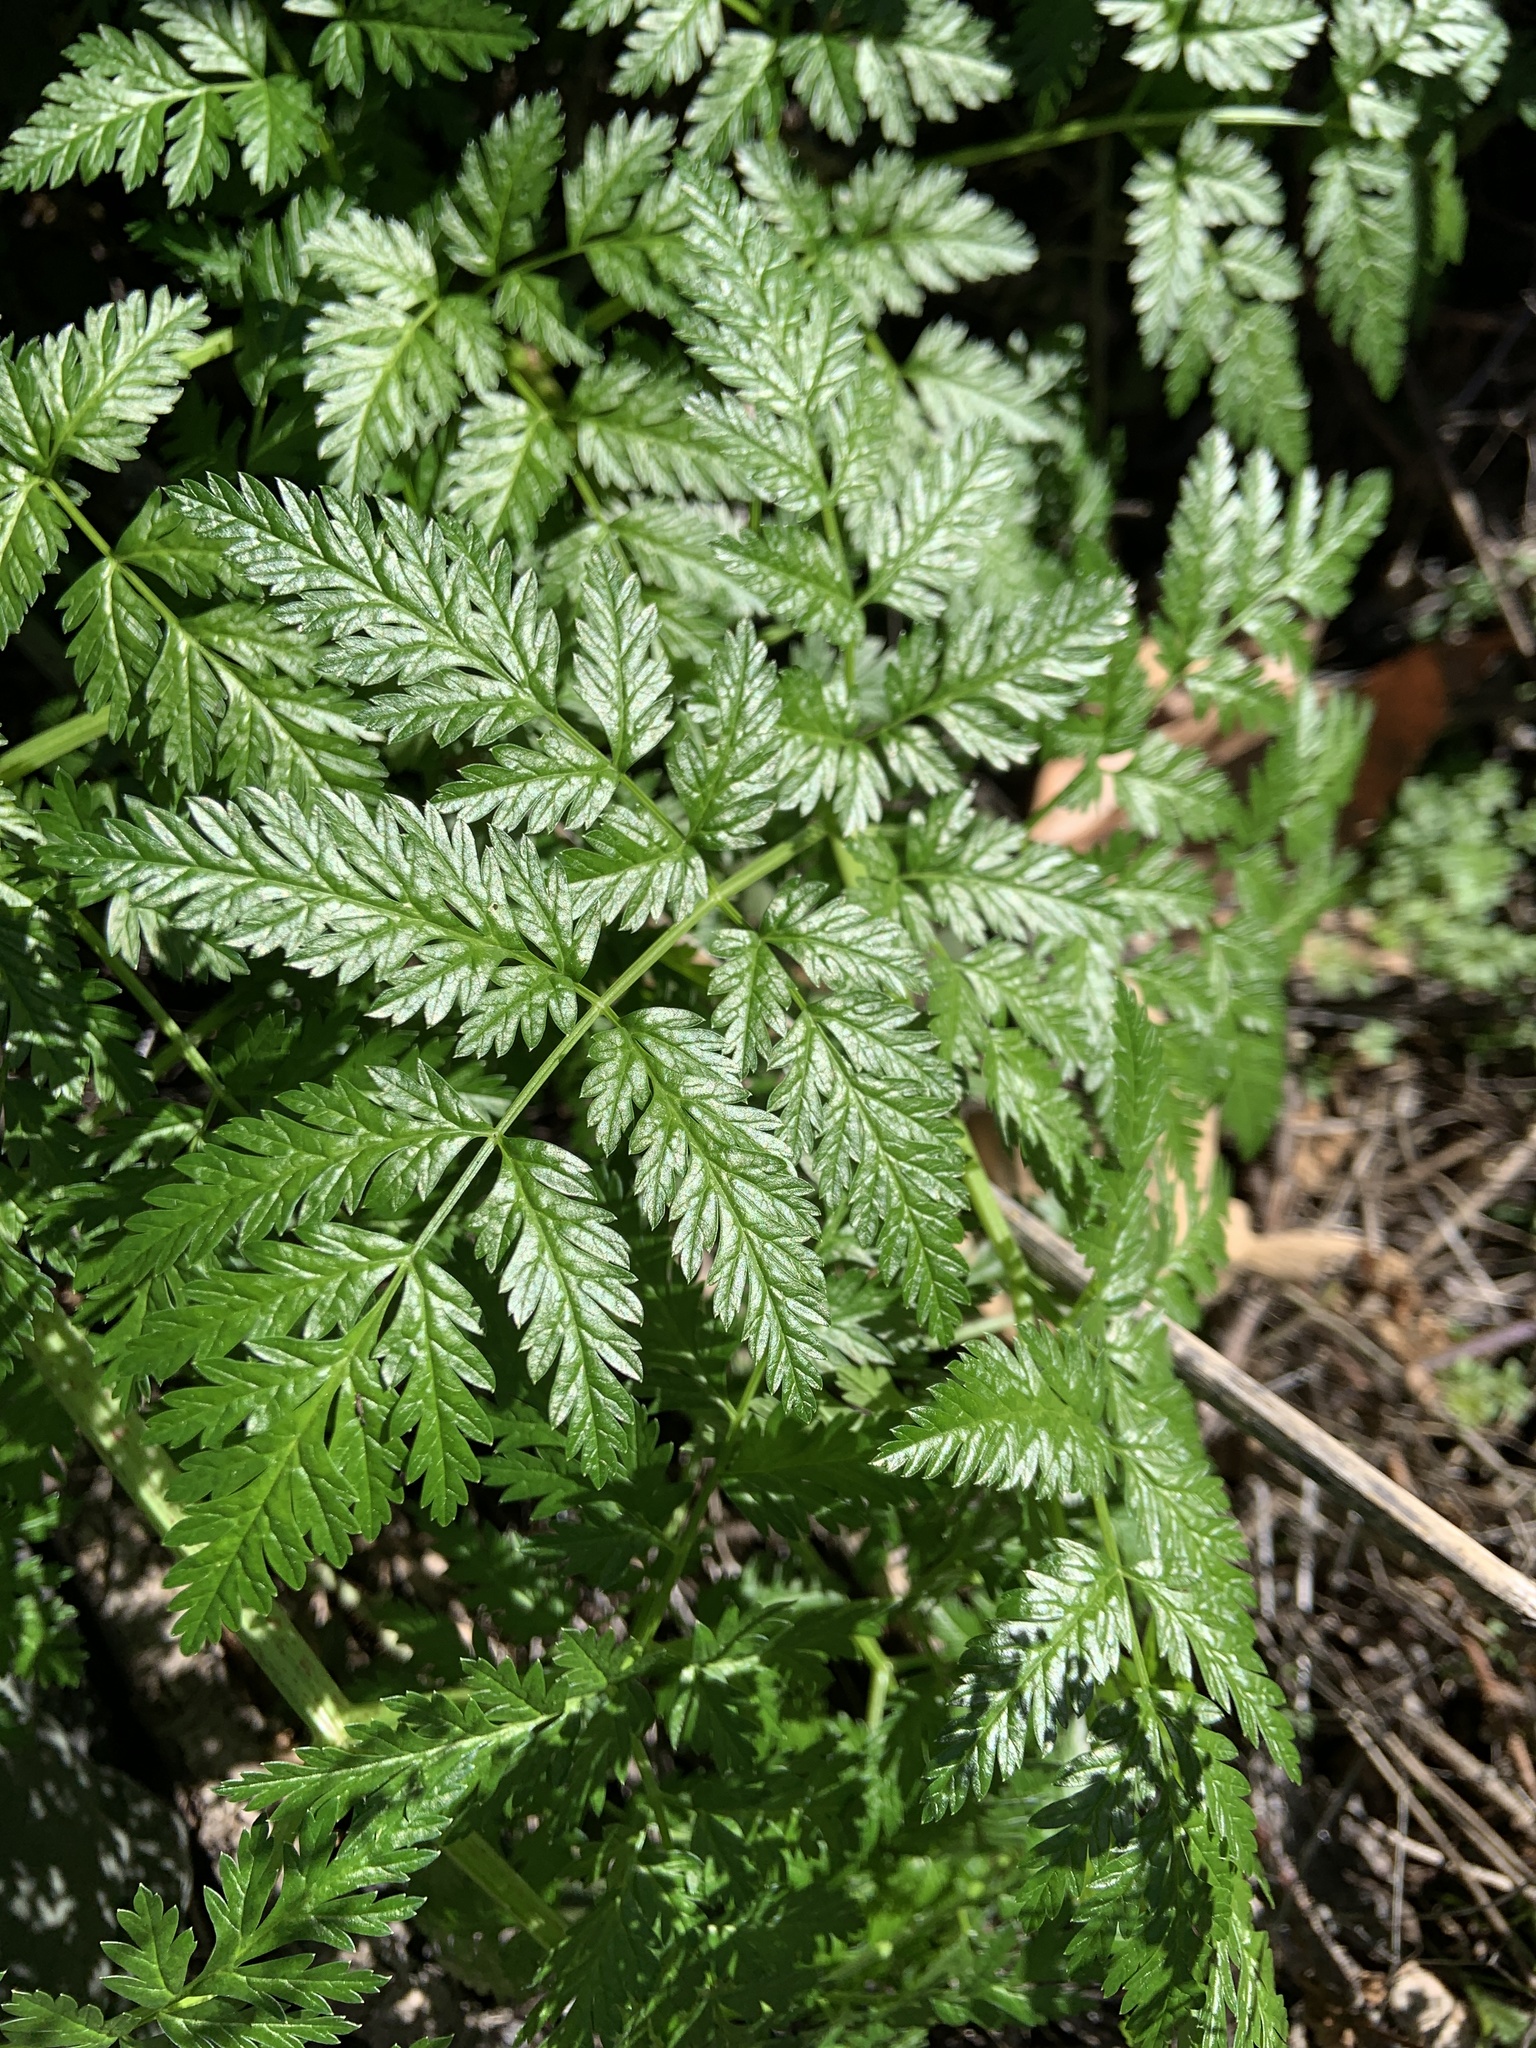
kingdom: Plantae
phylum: Tracheophyta
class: Magnoliopsida
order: Apiales
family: Apiaceae
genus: Conium
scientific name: Conium maculatum
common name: Hemlock
